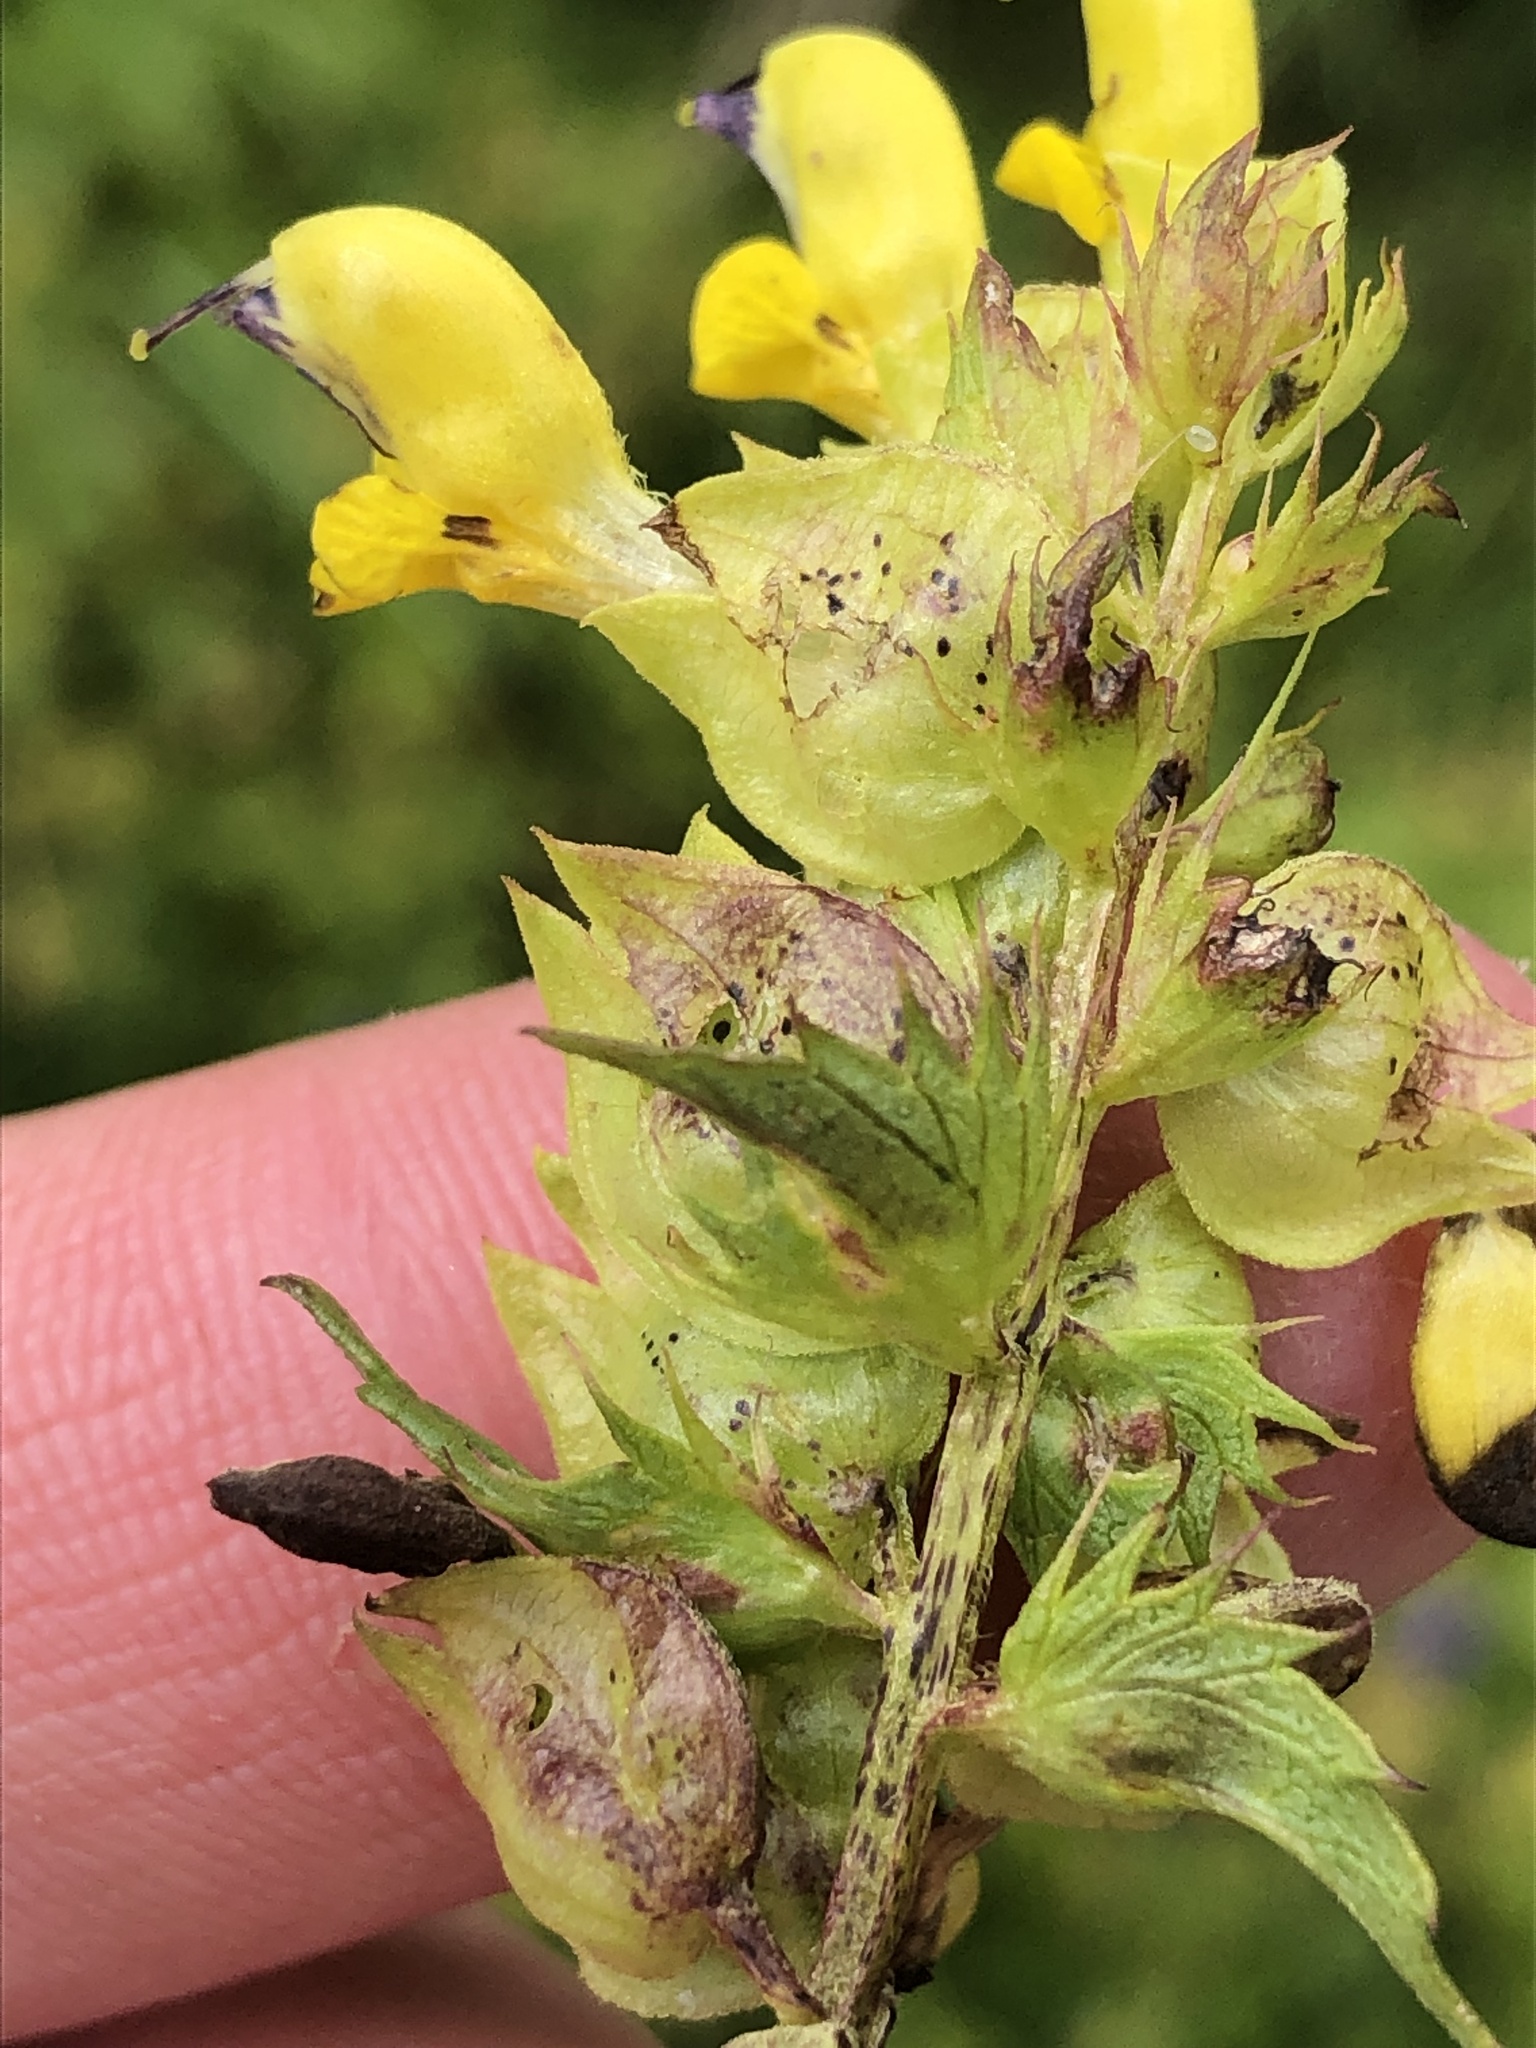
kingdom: Plantae
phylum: Tracheophyta
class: Magnoliopsida
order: Lamiales
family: Orobanchaceae
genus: Rhinanthus
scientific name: Rhinanthus glacialis
